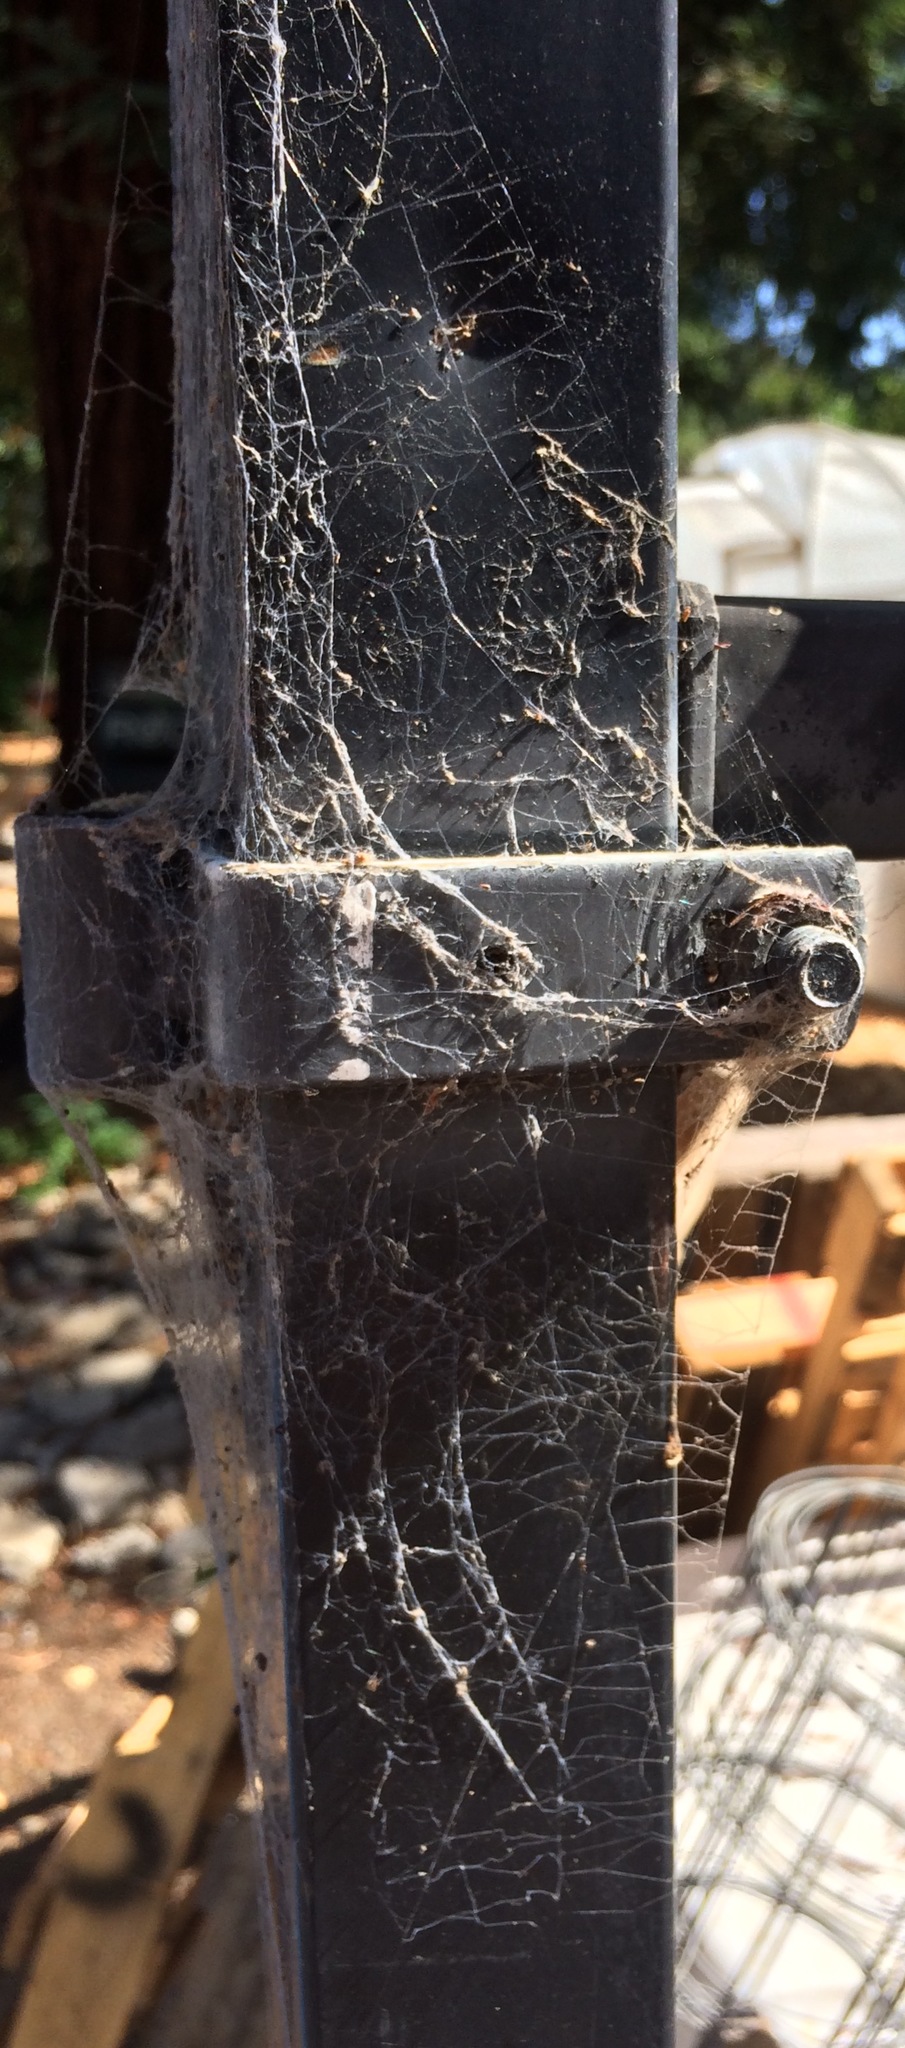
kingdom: Animalia
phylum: Arthropoda
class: Arachnida
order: Araneae
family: Desidae
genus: Badumna
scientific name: Badumna longinqua
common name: Gray house spider
